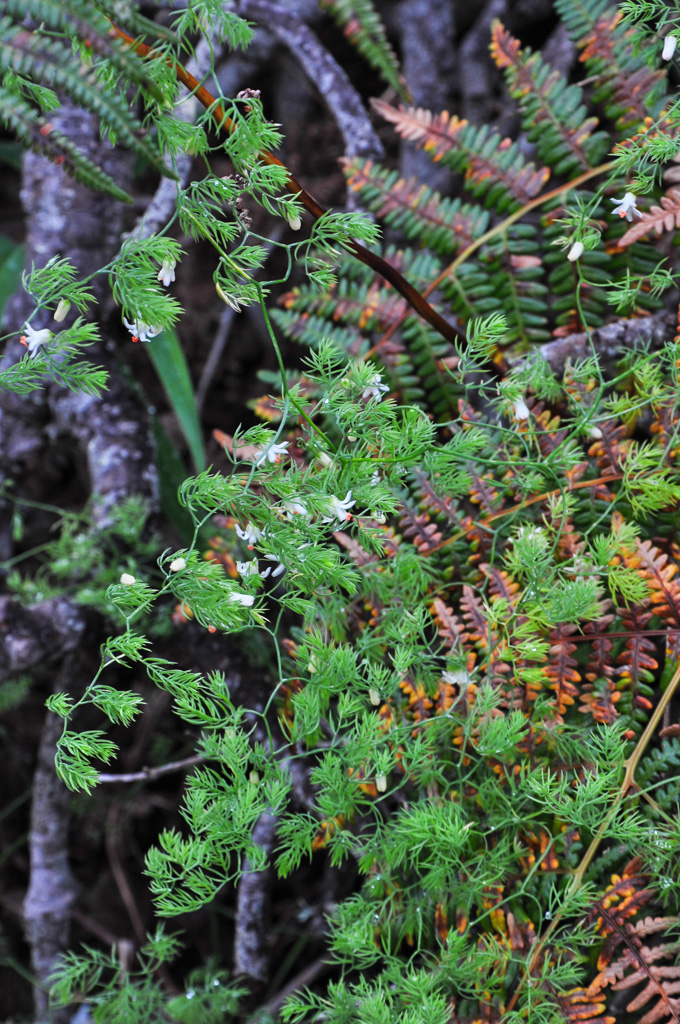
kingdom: Plantae
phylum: Tracheophyta
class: Liliopsida
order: Asparagales
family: Asparagaceae
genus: Asparagus
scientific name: Asparagus declinatus
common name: Bridal-creeper
